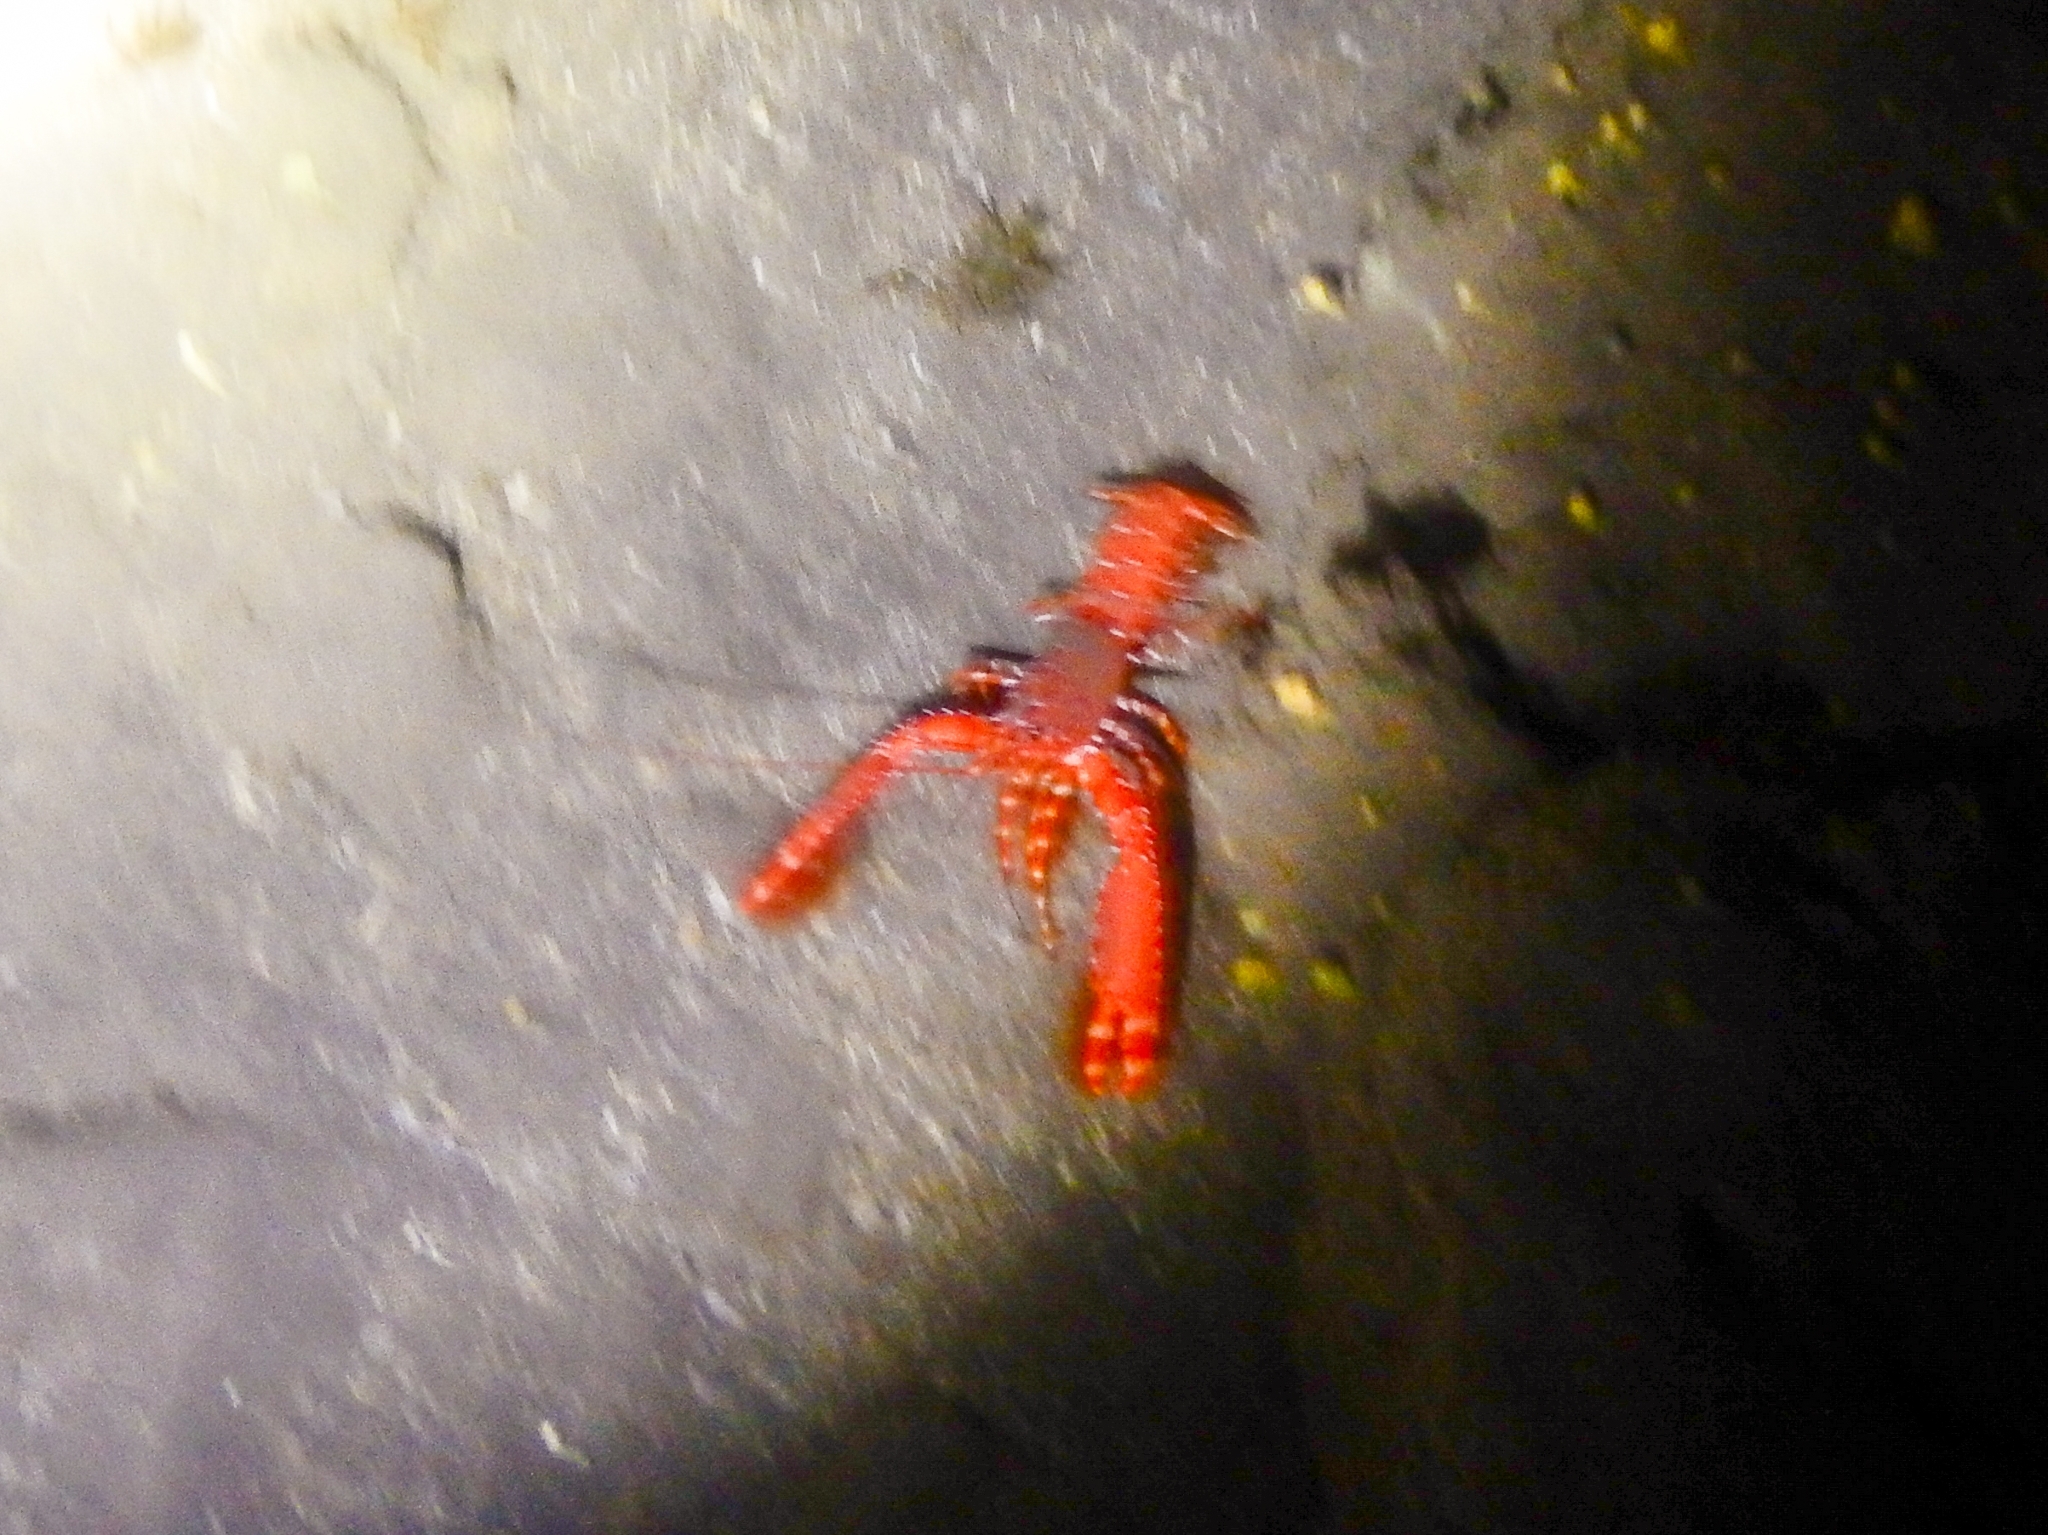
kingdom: Animalia
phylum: Arthropoda
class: Malacostraca
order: Decapoda
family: Enoplometopidae
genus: Enoplometopus
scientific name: Enoplometopus antillensis
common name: Dwarf reef lobster
